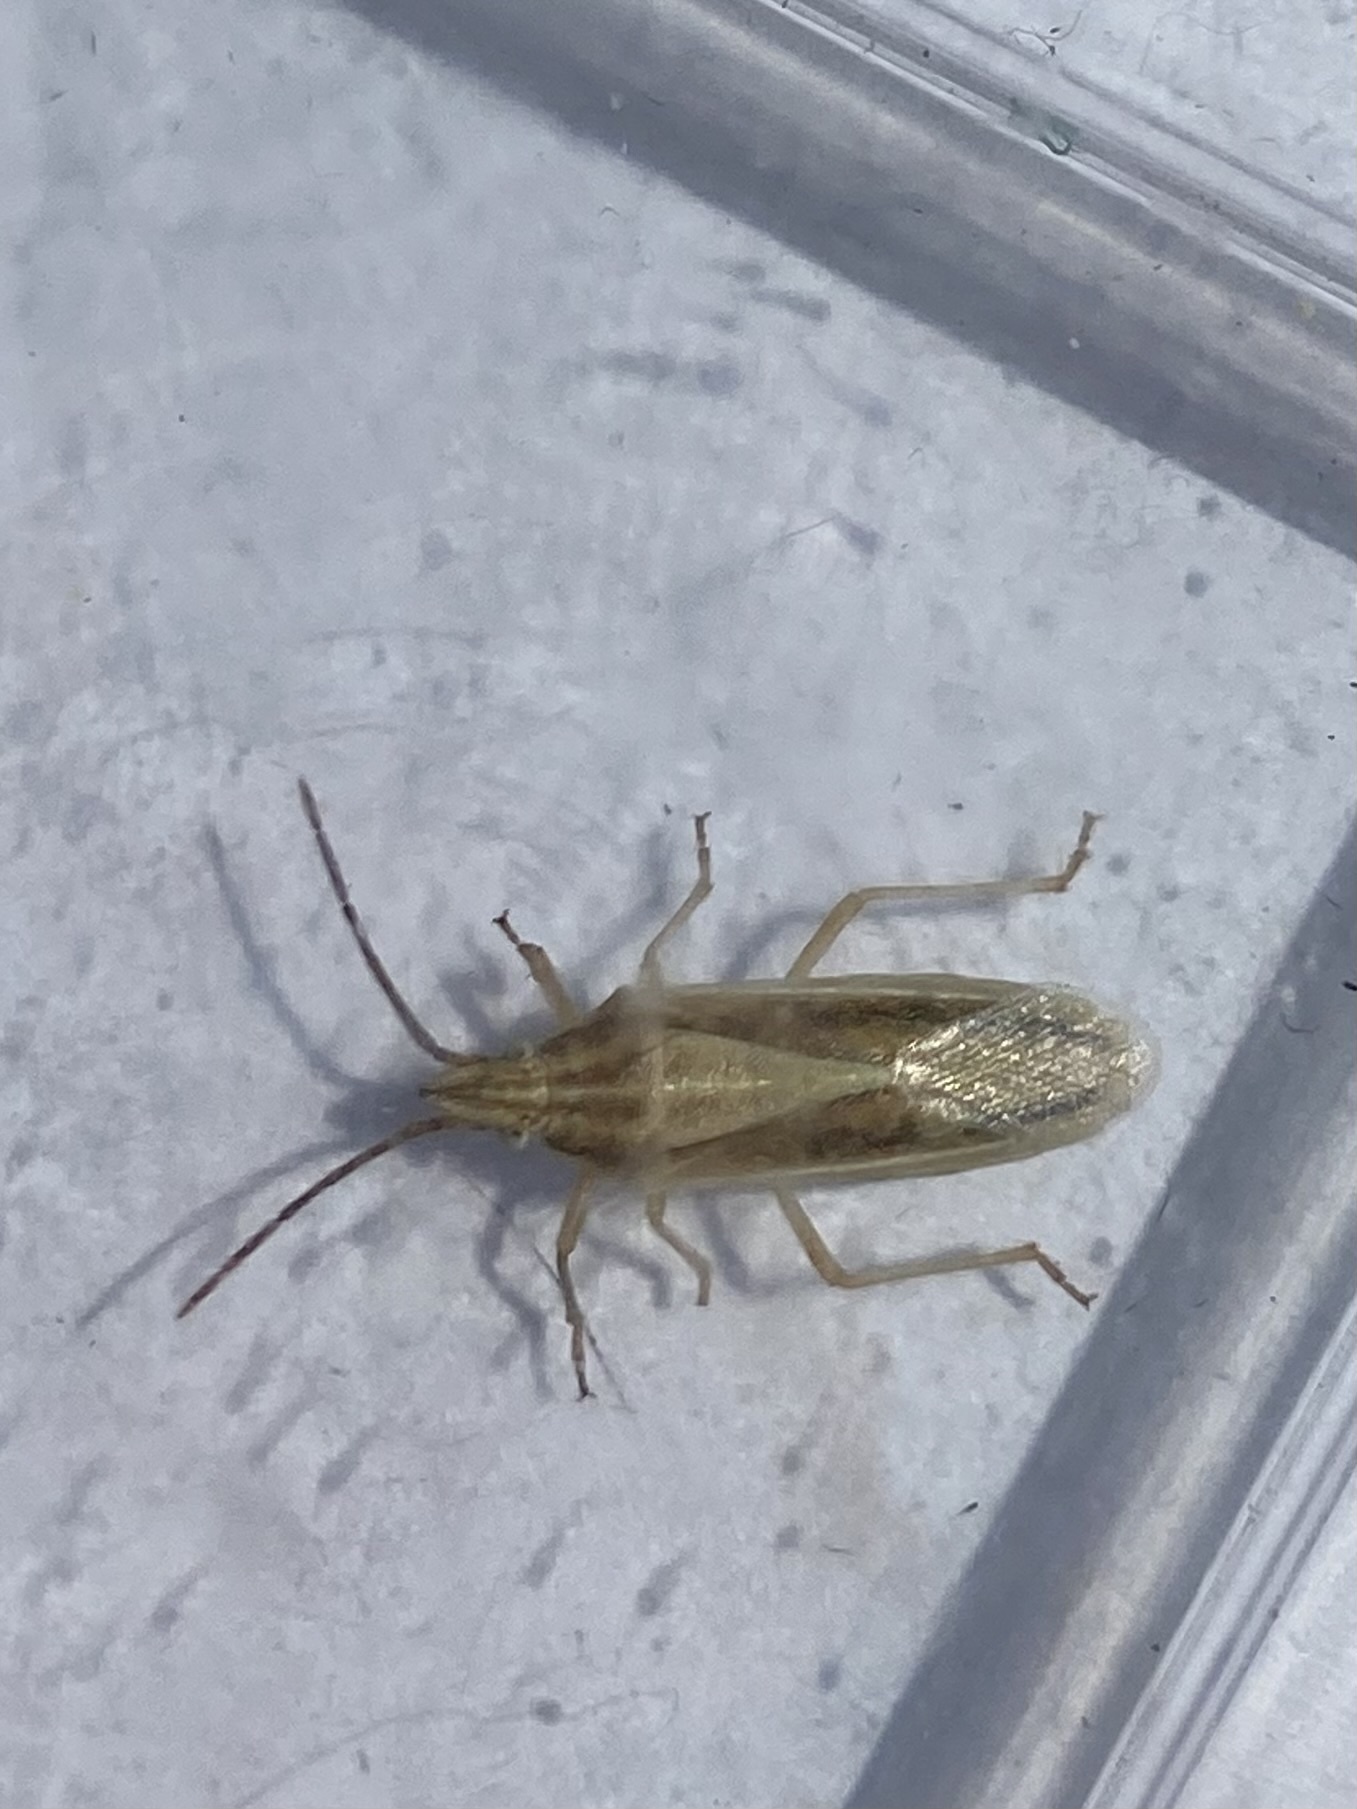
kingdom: Animalia
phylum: Arthropoda
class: Insecta
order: Hemiptera
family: Pentatomidae
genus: Mecidea
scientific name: Mecidea
